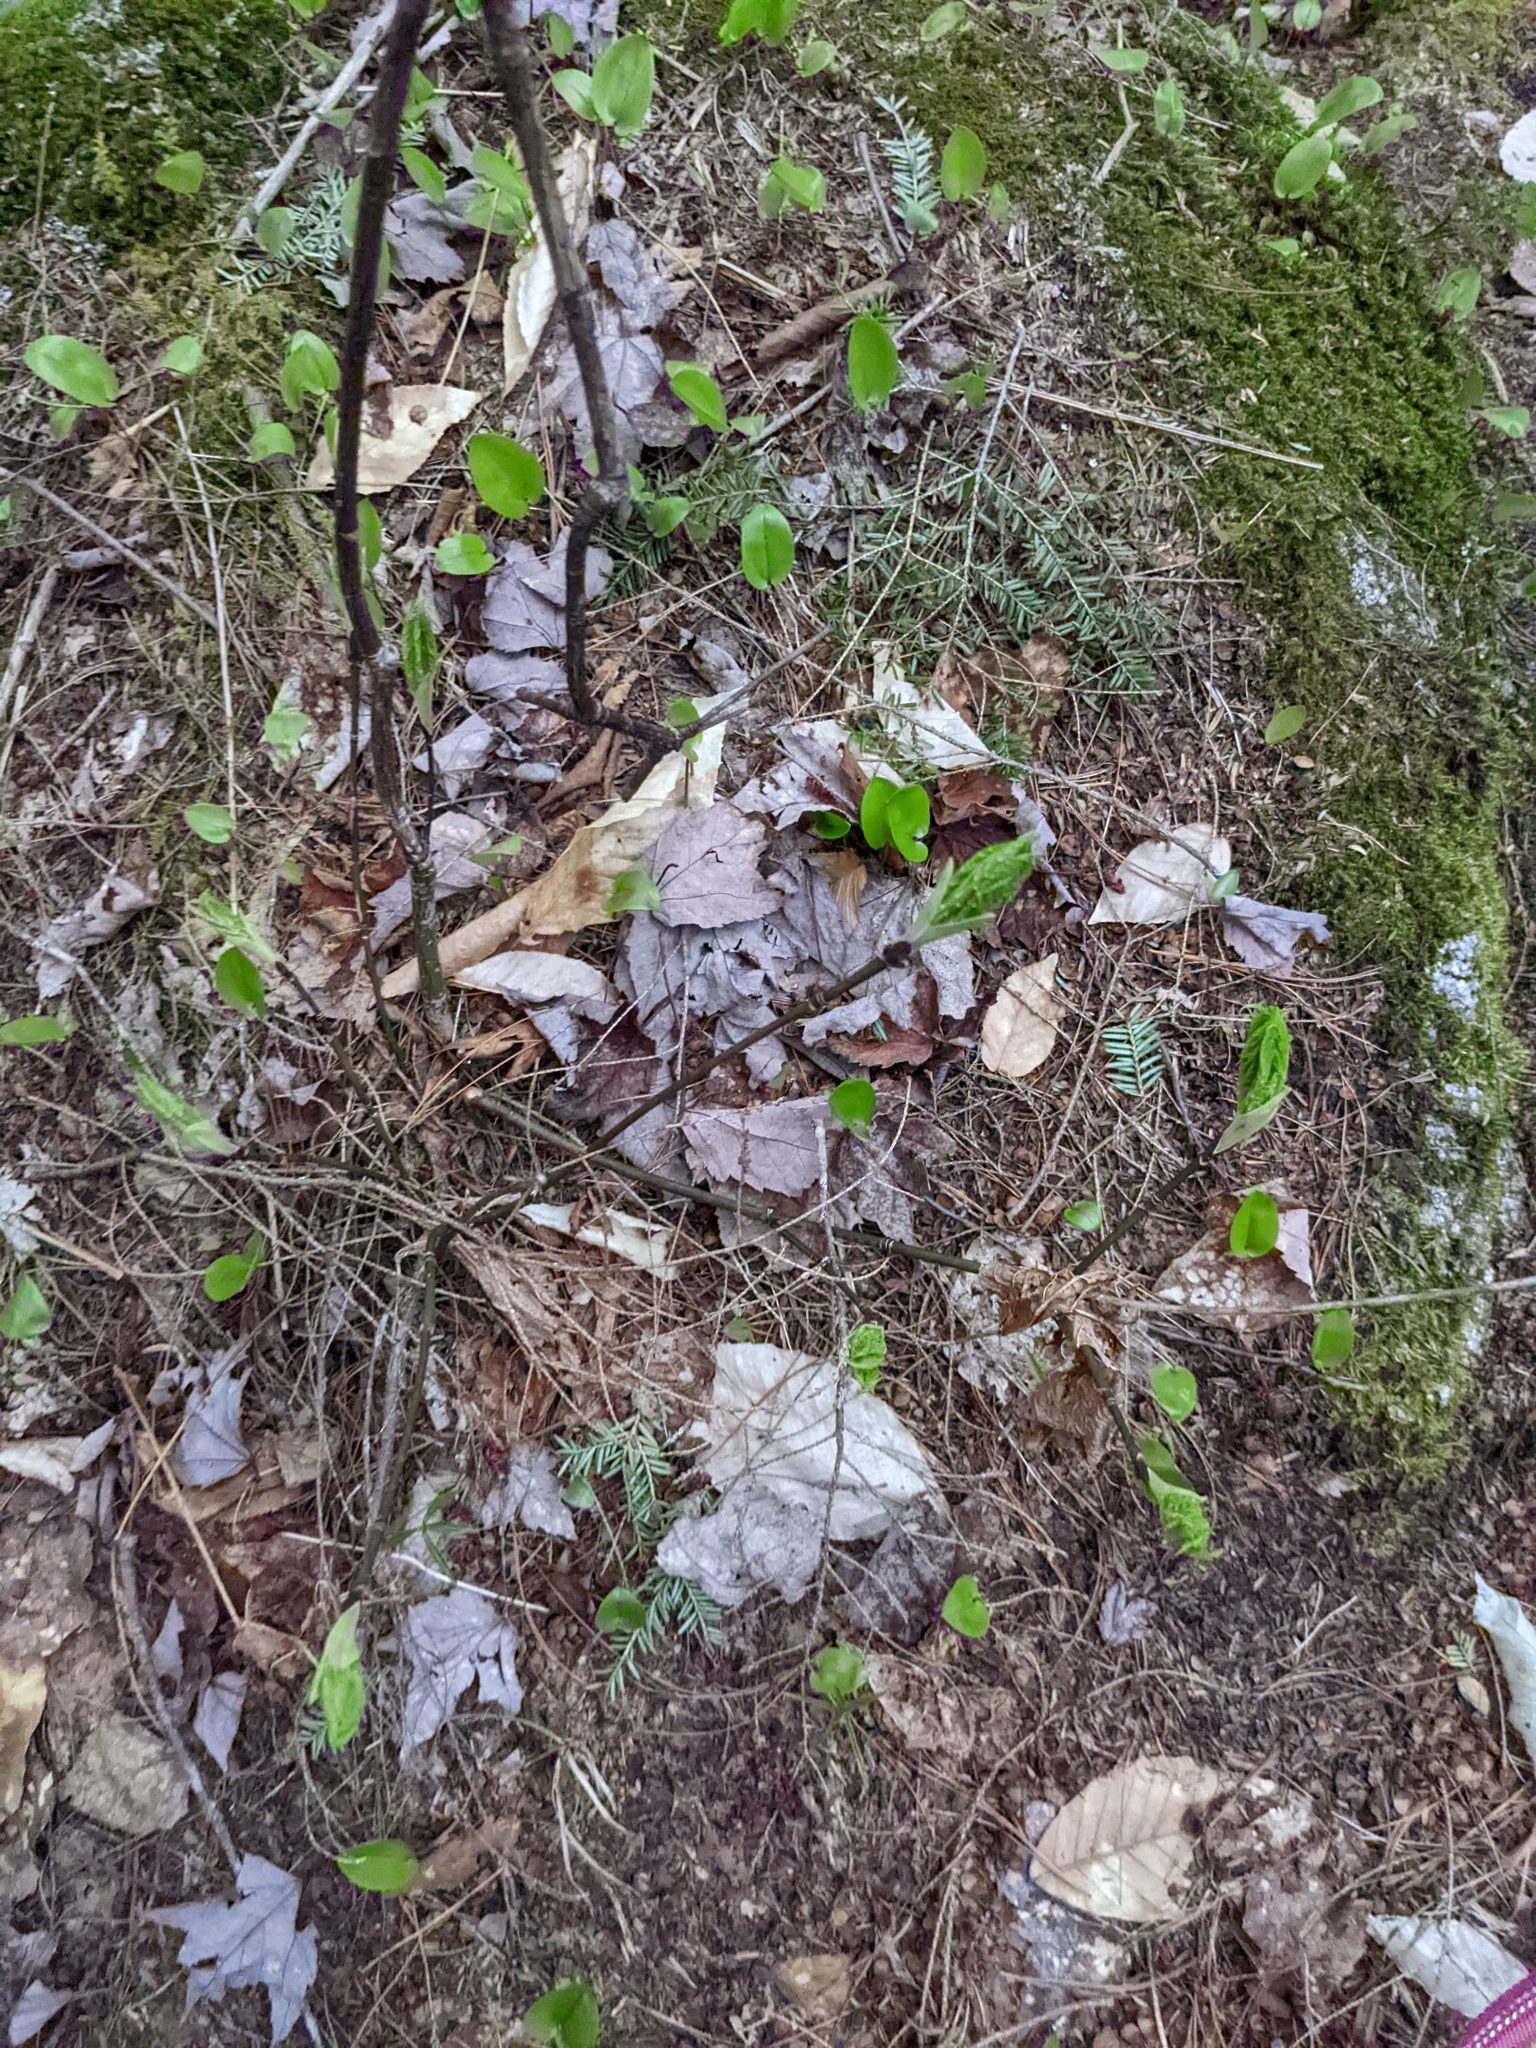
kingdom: Plantae
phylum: Tracheophyta
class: Magnoliopsida
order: Sapindales
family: Sapindaceae
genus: Acer
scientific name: Acer pensylvanicum
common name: Moosewood
